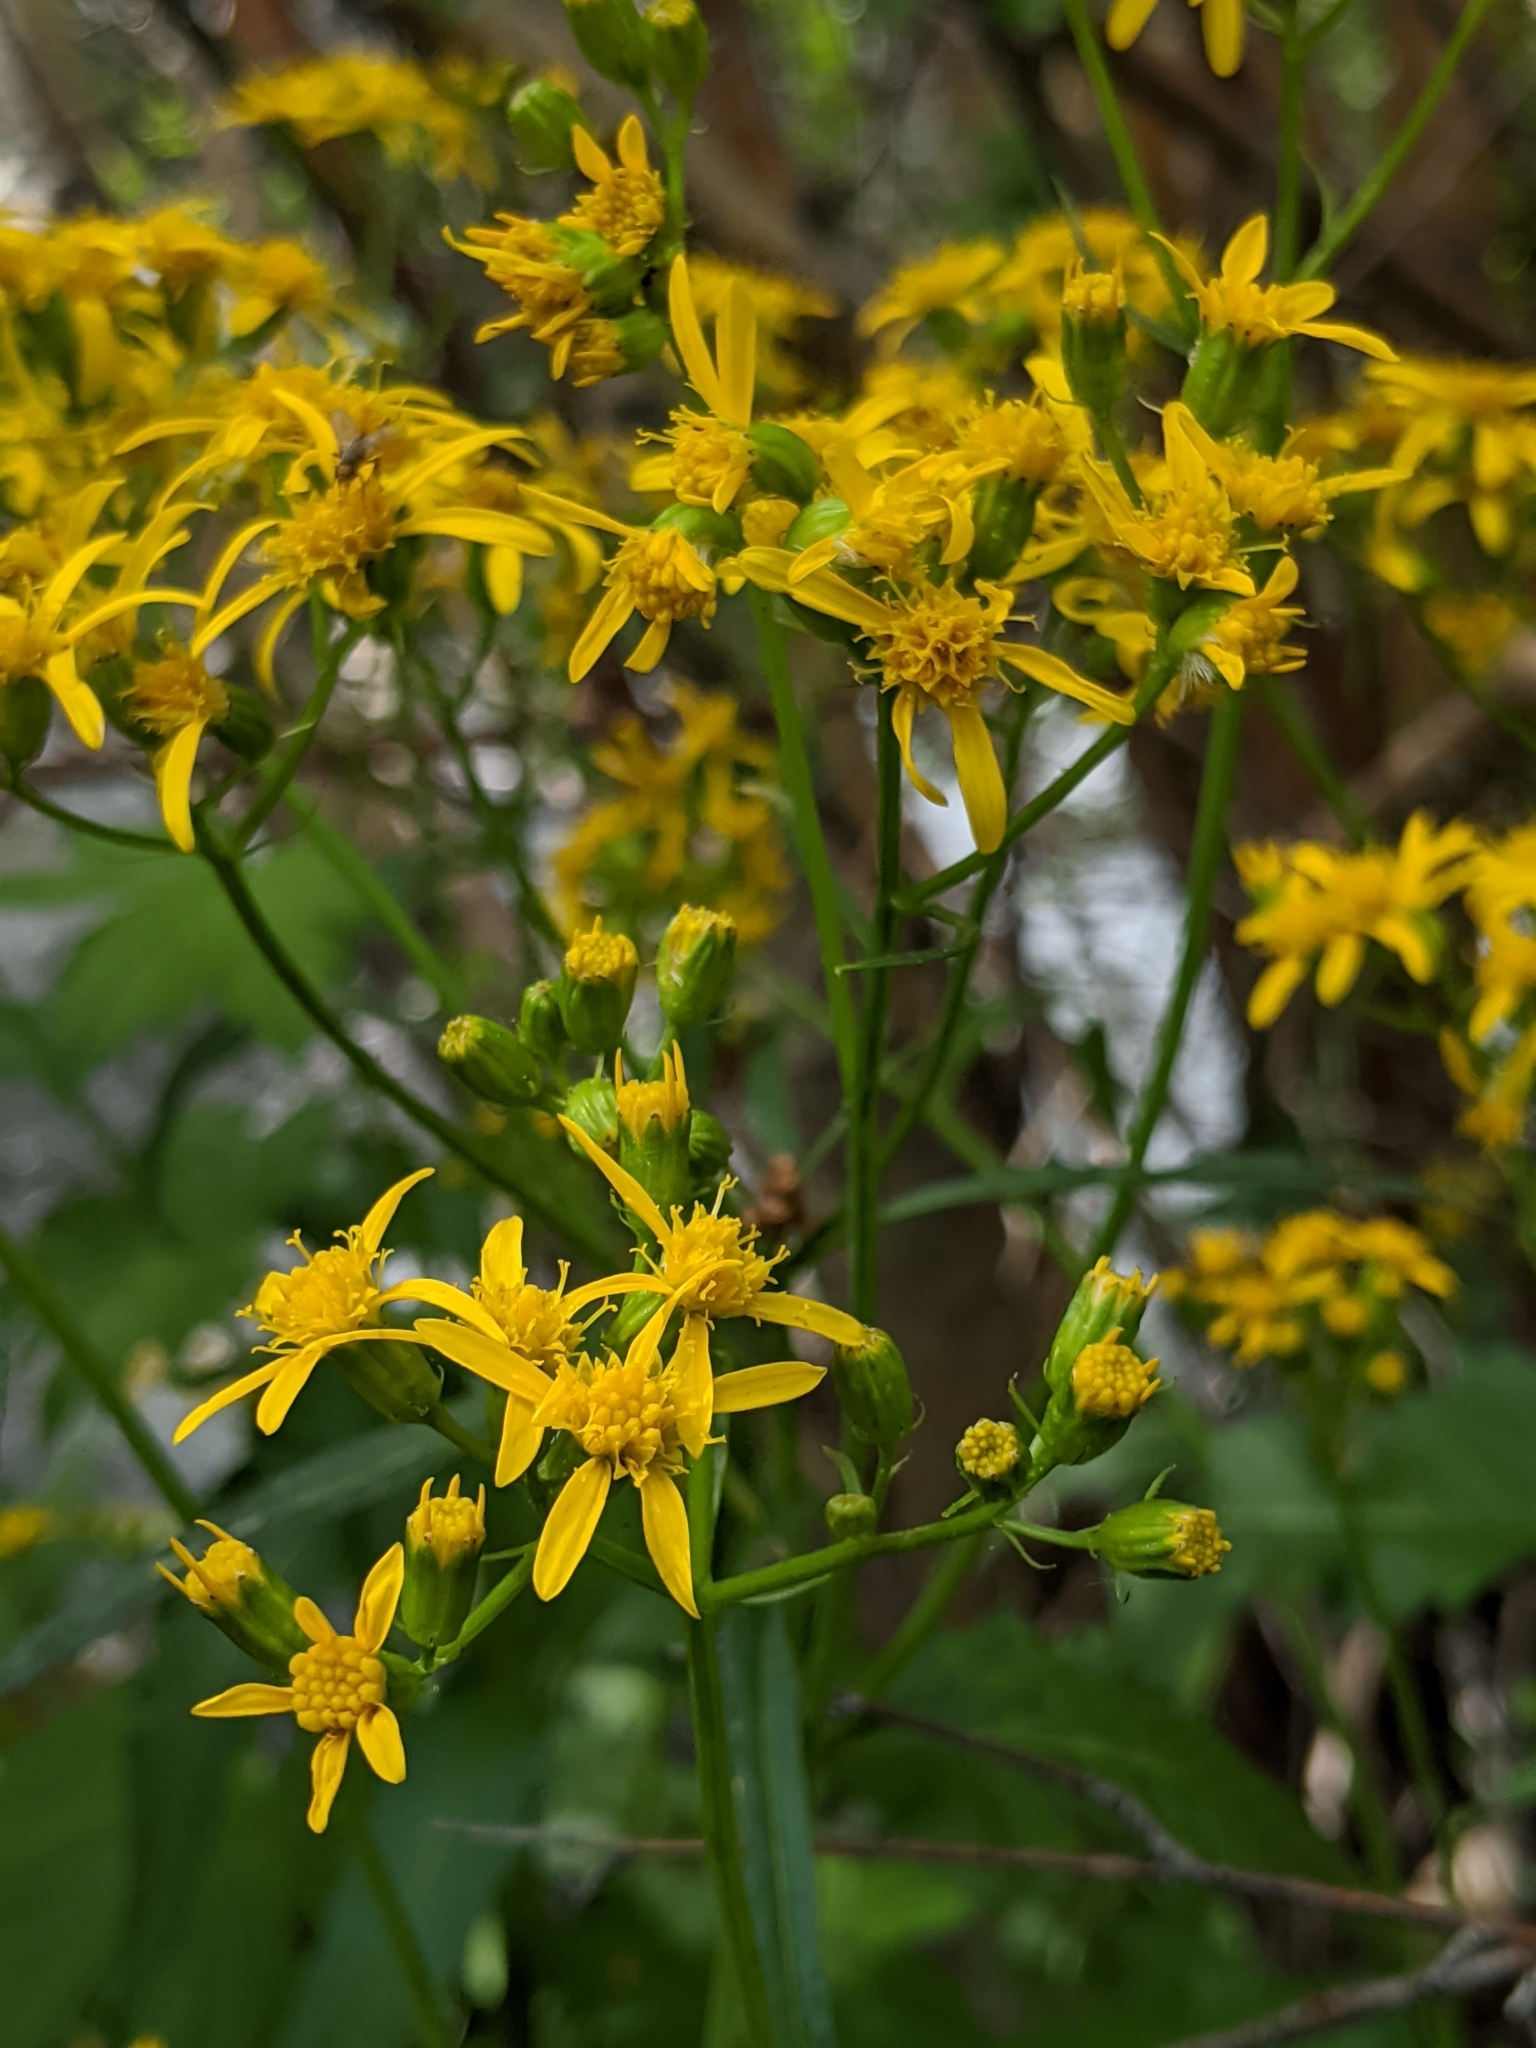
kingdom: Plantae
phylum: Tracheophyta
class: Magnoliopsida
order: Asterales
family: Asteraceae
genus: Senecio
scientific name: Senecio triangularis
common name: Arrowleaf butterweed
